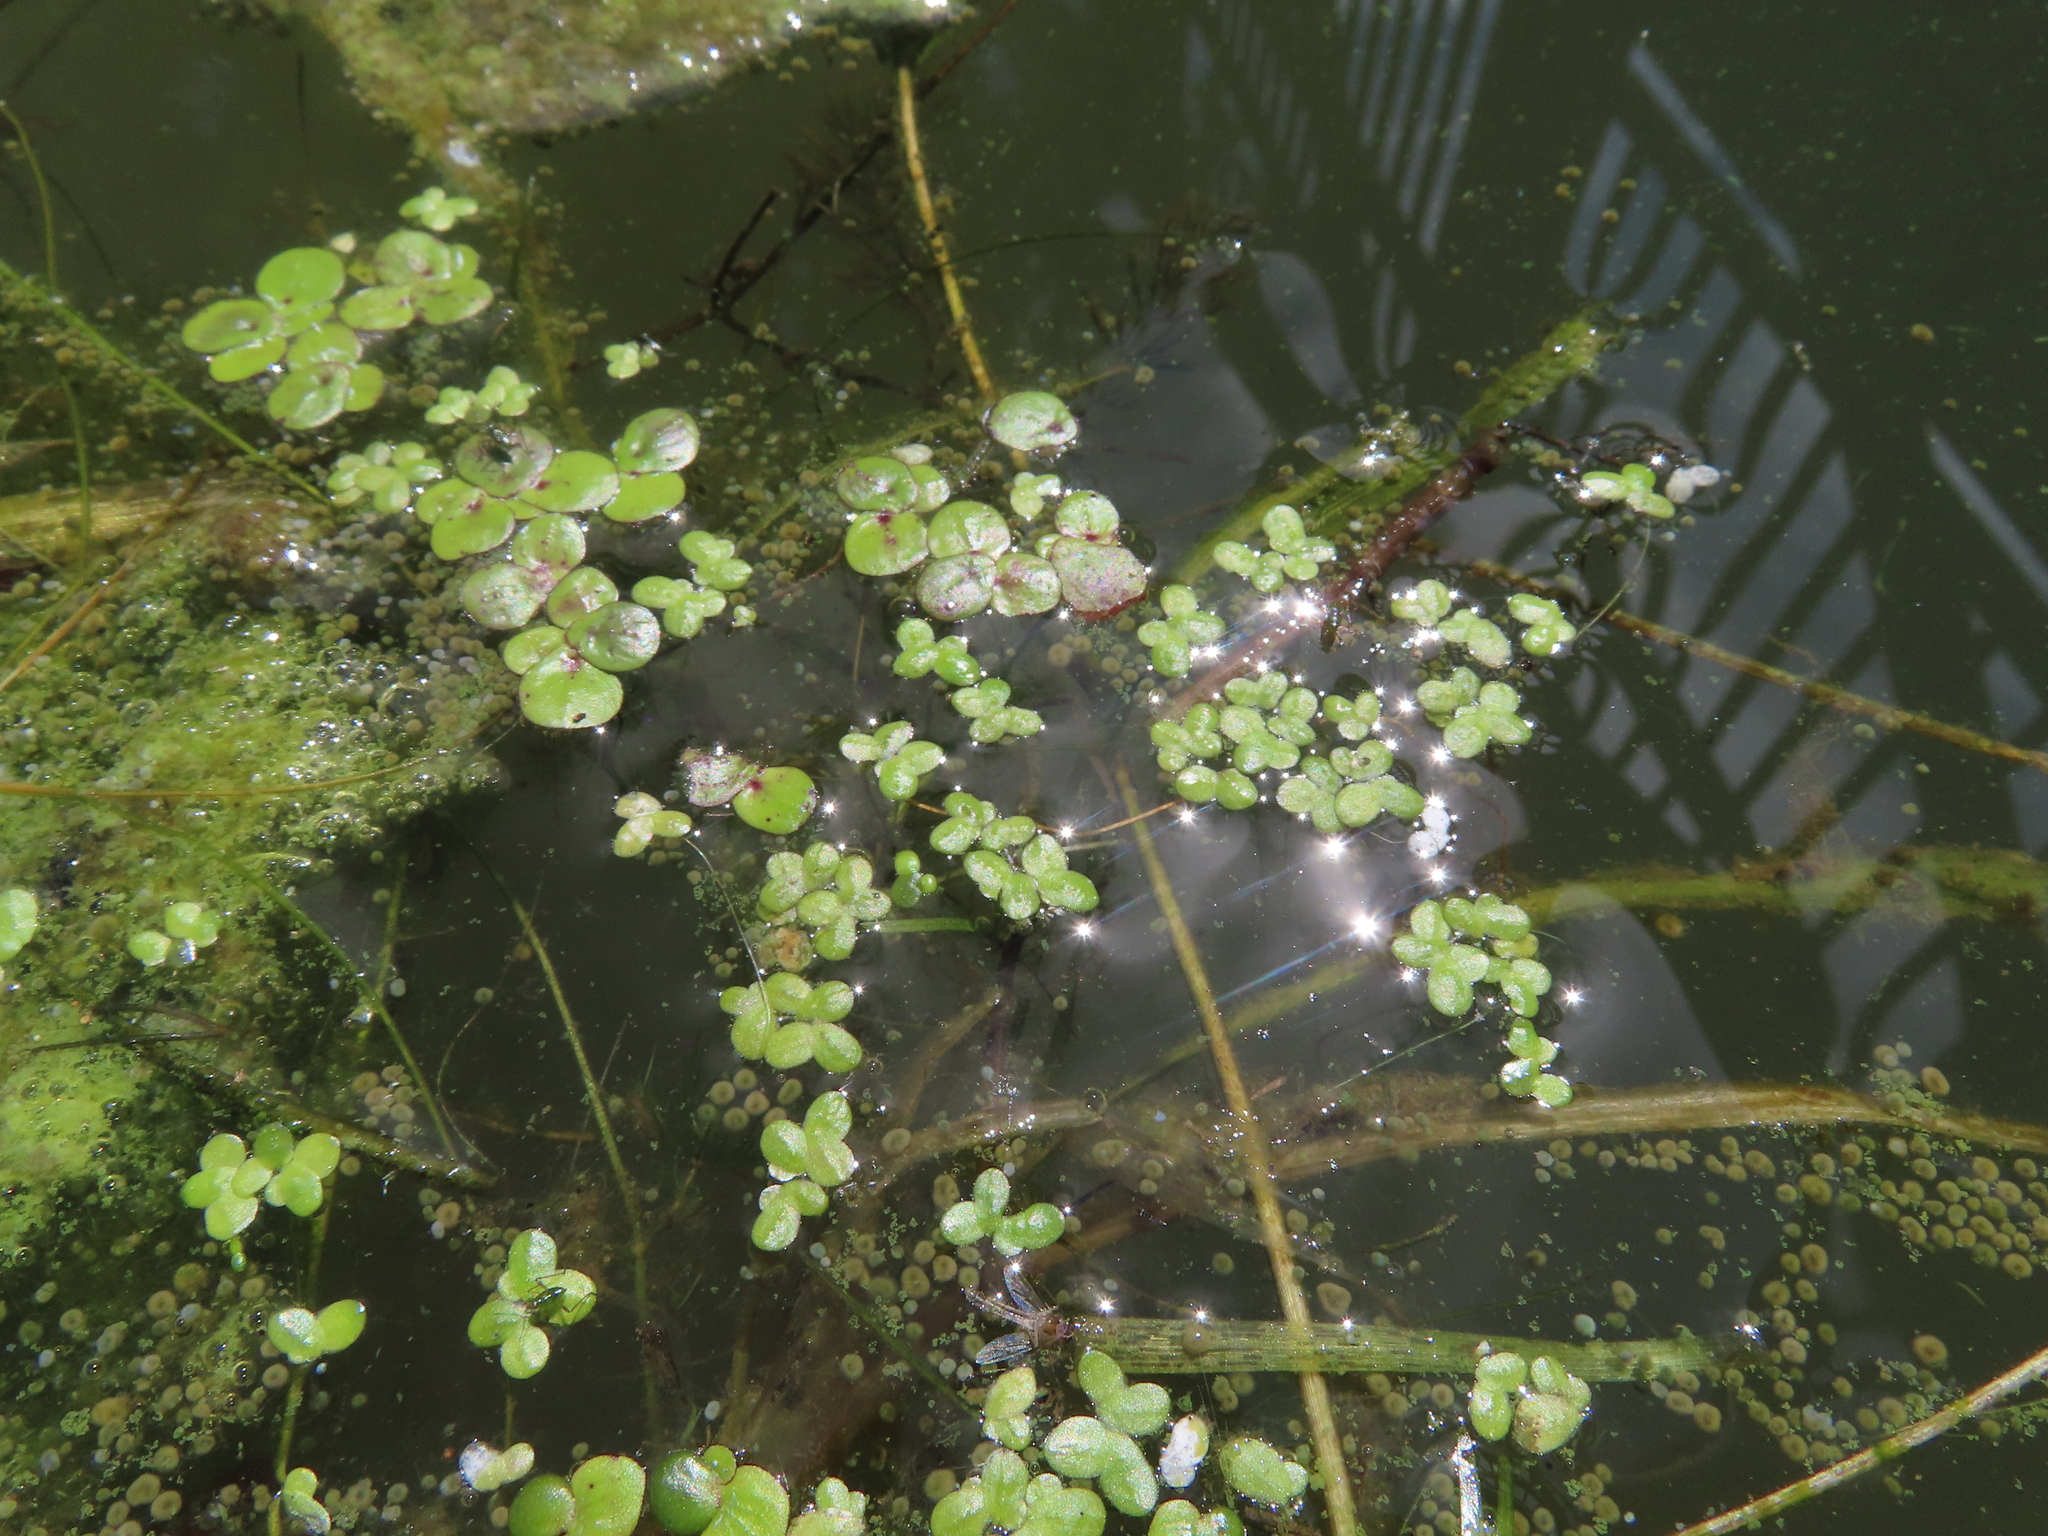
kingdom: Plantae
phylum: Tracheophyta
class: Liliopsida
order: Alismatales
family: Araceae
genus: Spirodela
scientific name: Spirodela polyrhiza
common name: Great duckweed
